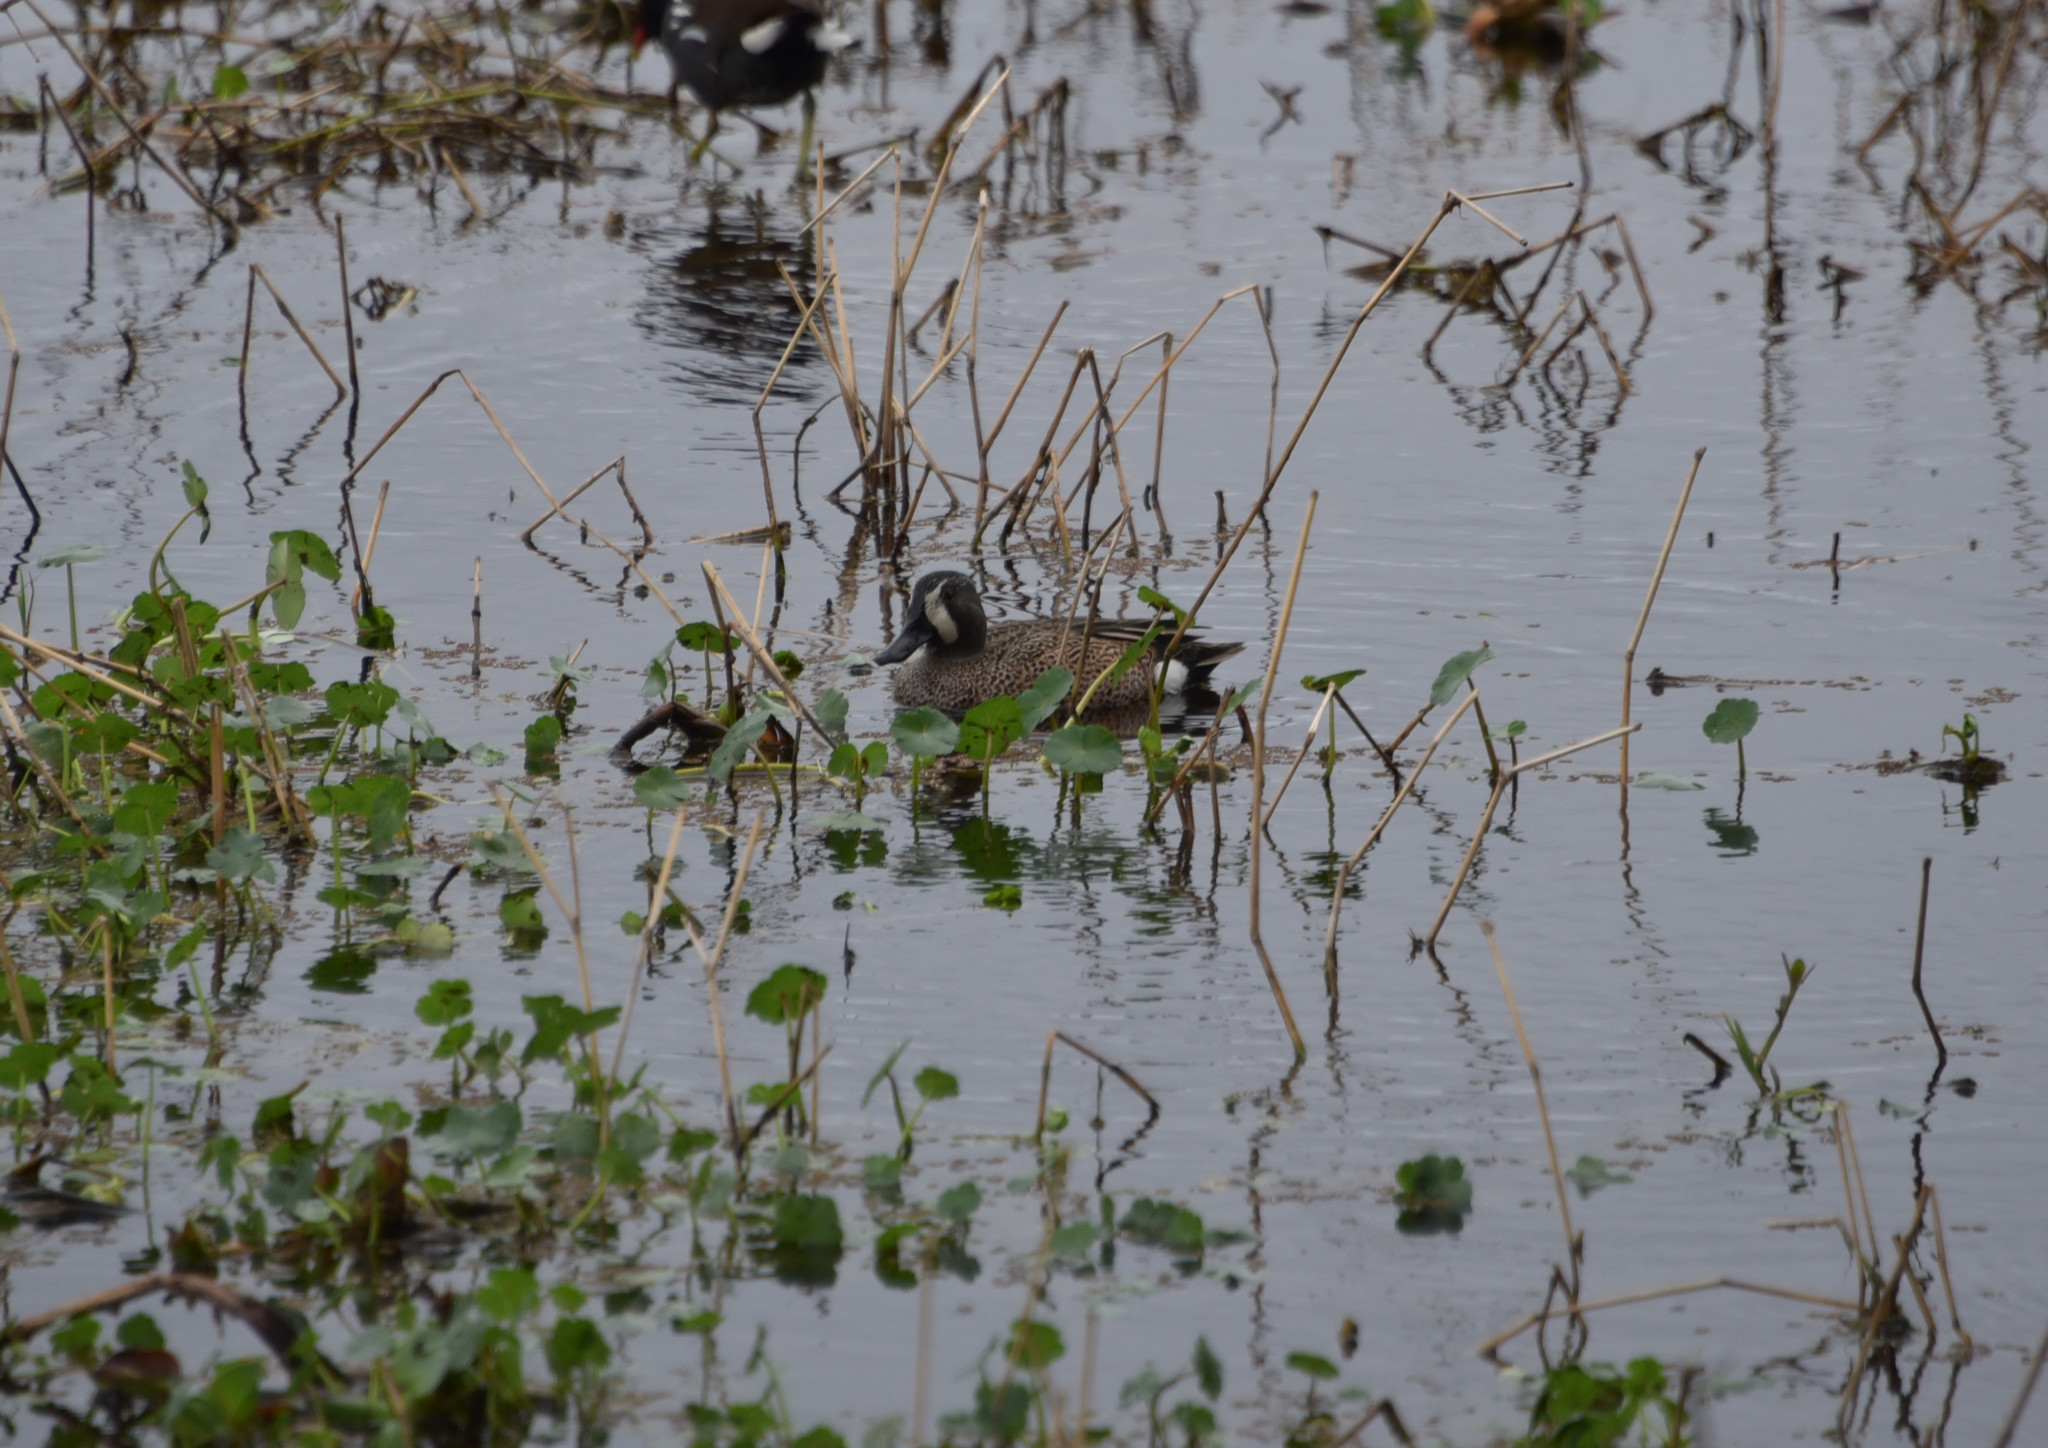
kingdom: Animalia
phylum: Chordata
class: Aves
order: Anseriformes
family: Anatidae
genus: Spatula
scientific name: Spatula discors
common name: Blue-winged teal
